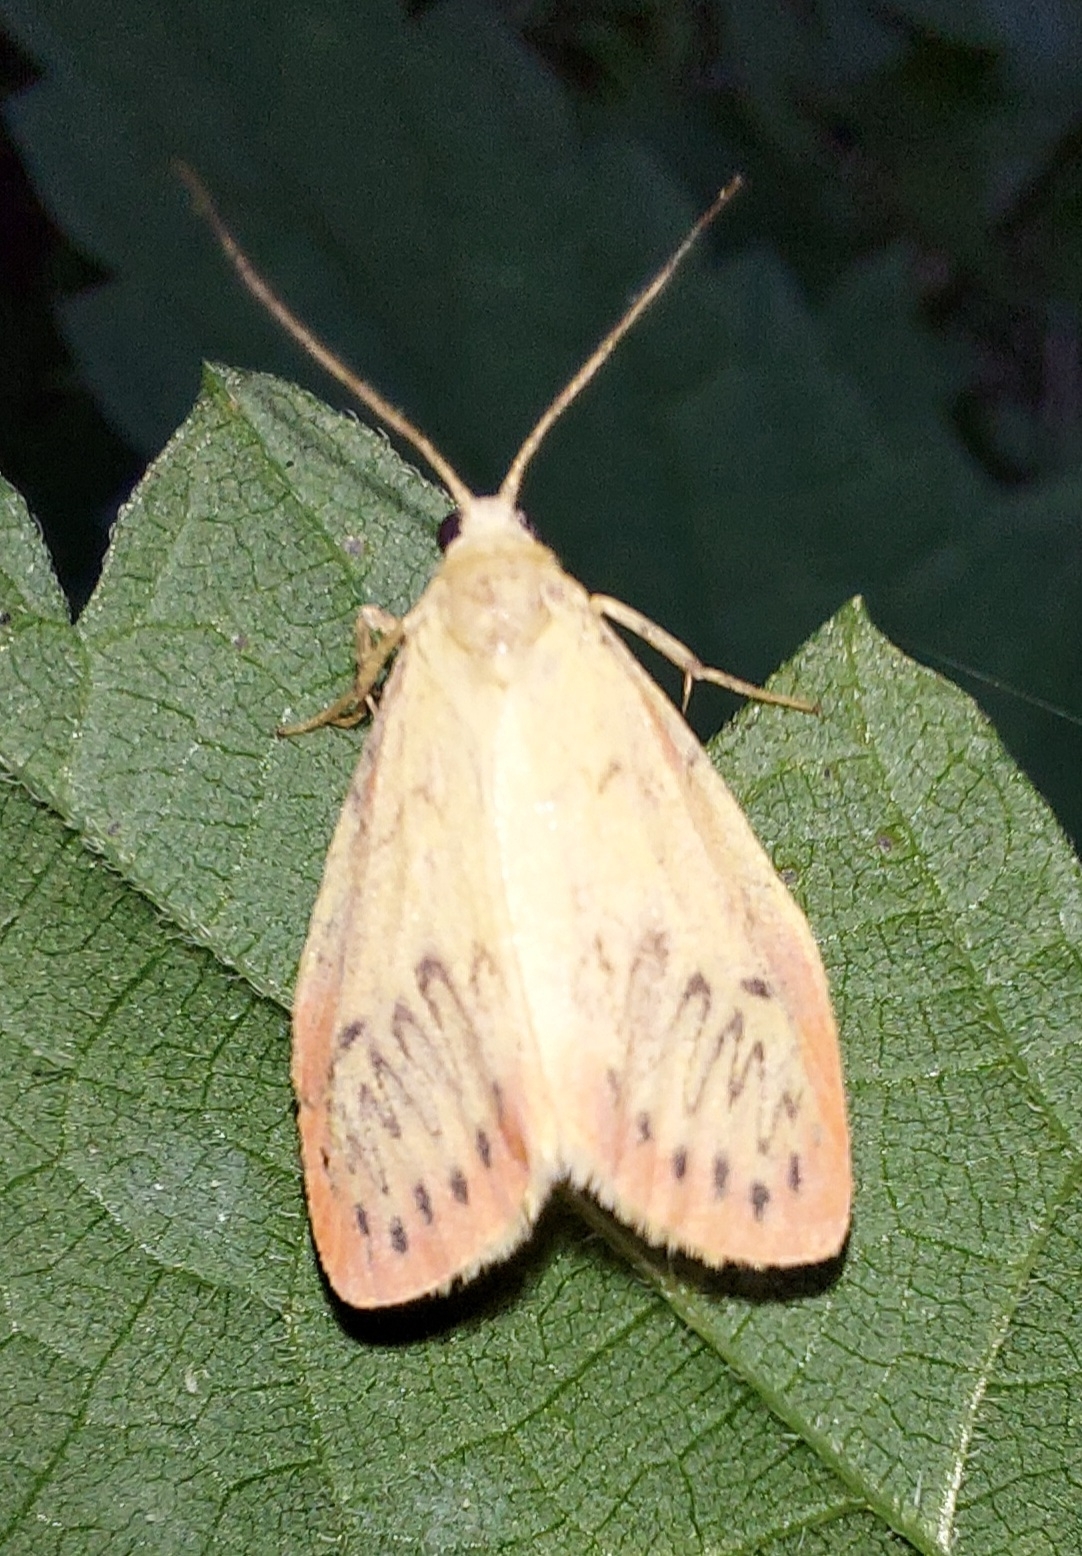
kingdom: Animalia
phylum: Arthropoda
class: Insecta
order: Lepidoptera
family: Erebidae
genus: Miltochrista
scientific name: Miltochrista miniata
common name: Rosy footman
